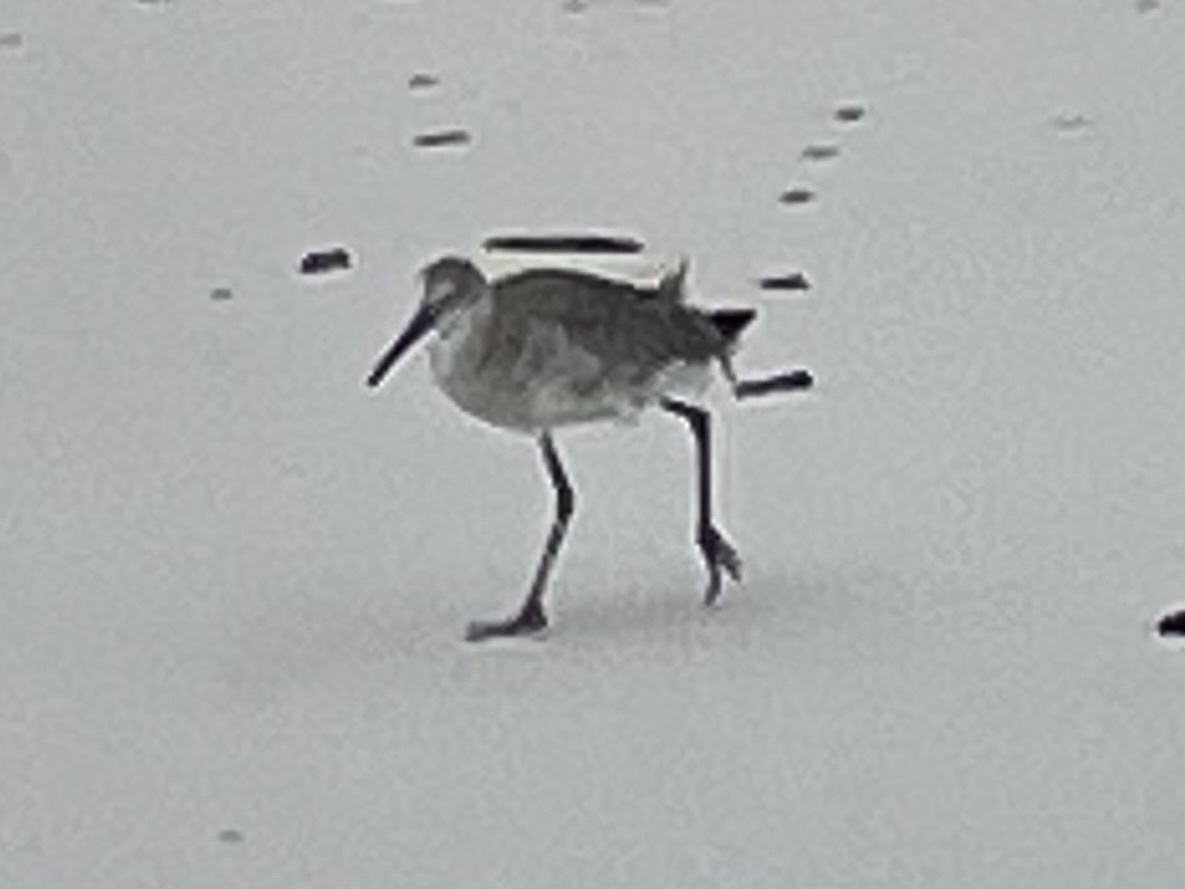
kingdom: Animalia
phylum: Chordata
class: Aves
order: Charadriiformes
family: Scolopacidae
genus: Tringa
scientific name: Tringa semipalmata
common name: Willet
